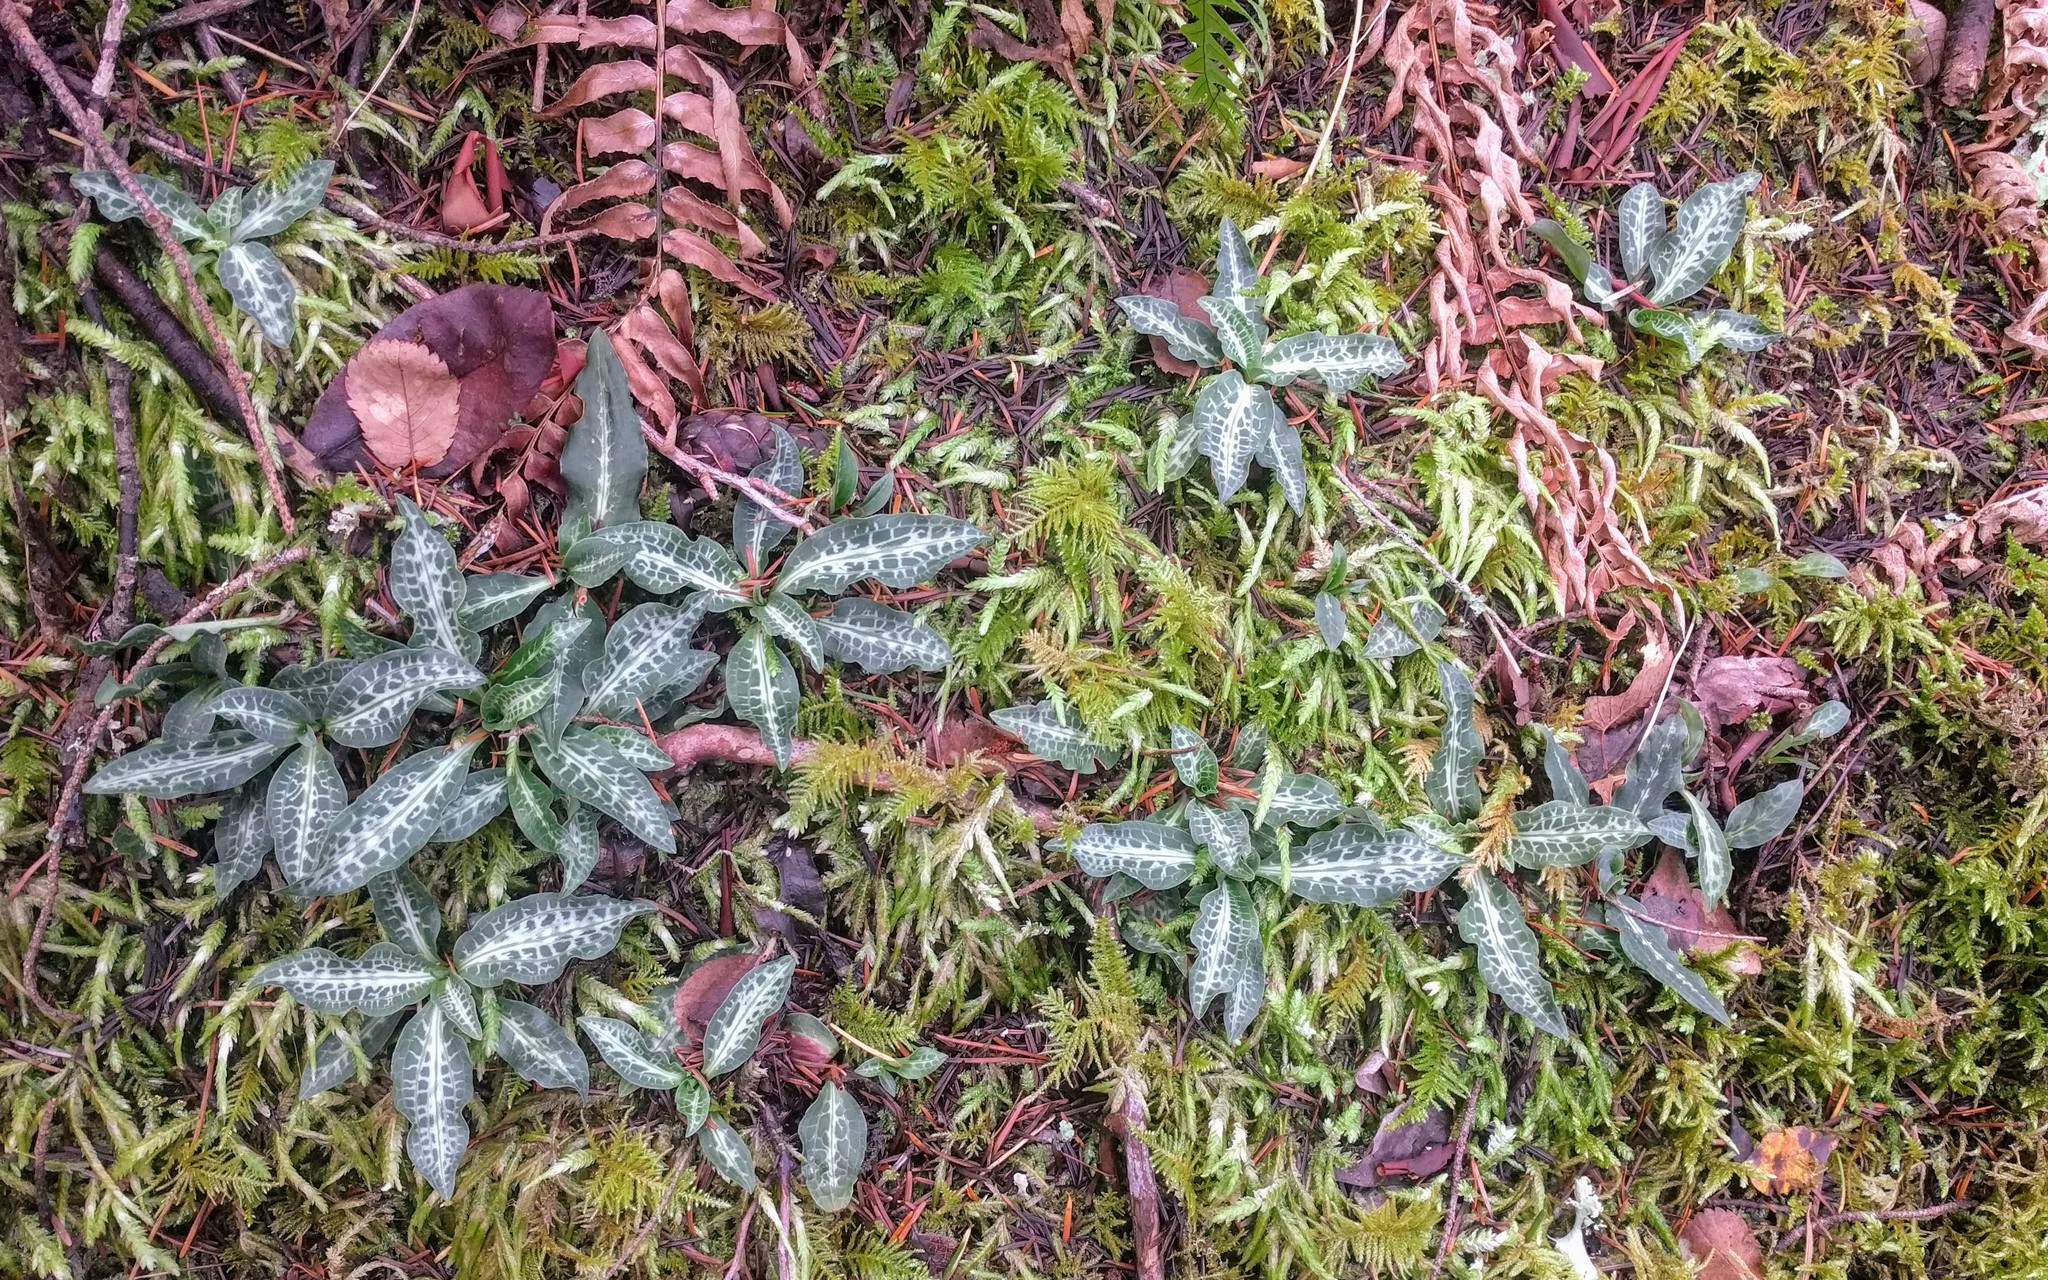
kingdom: Plantae
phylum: Tracheophyta
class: Liliopsida
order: Asparagales
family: Orchidaceae
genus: Goodyera
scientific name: Goodyera oblongifolia
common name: Giant rattlesnake-plantain
